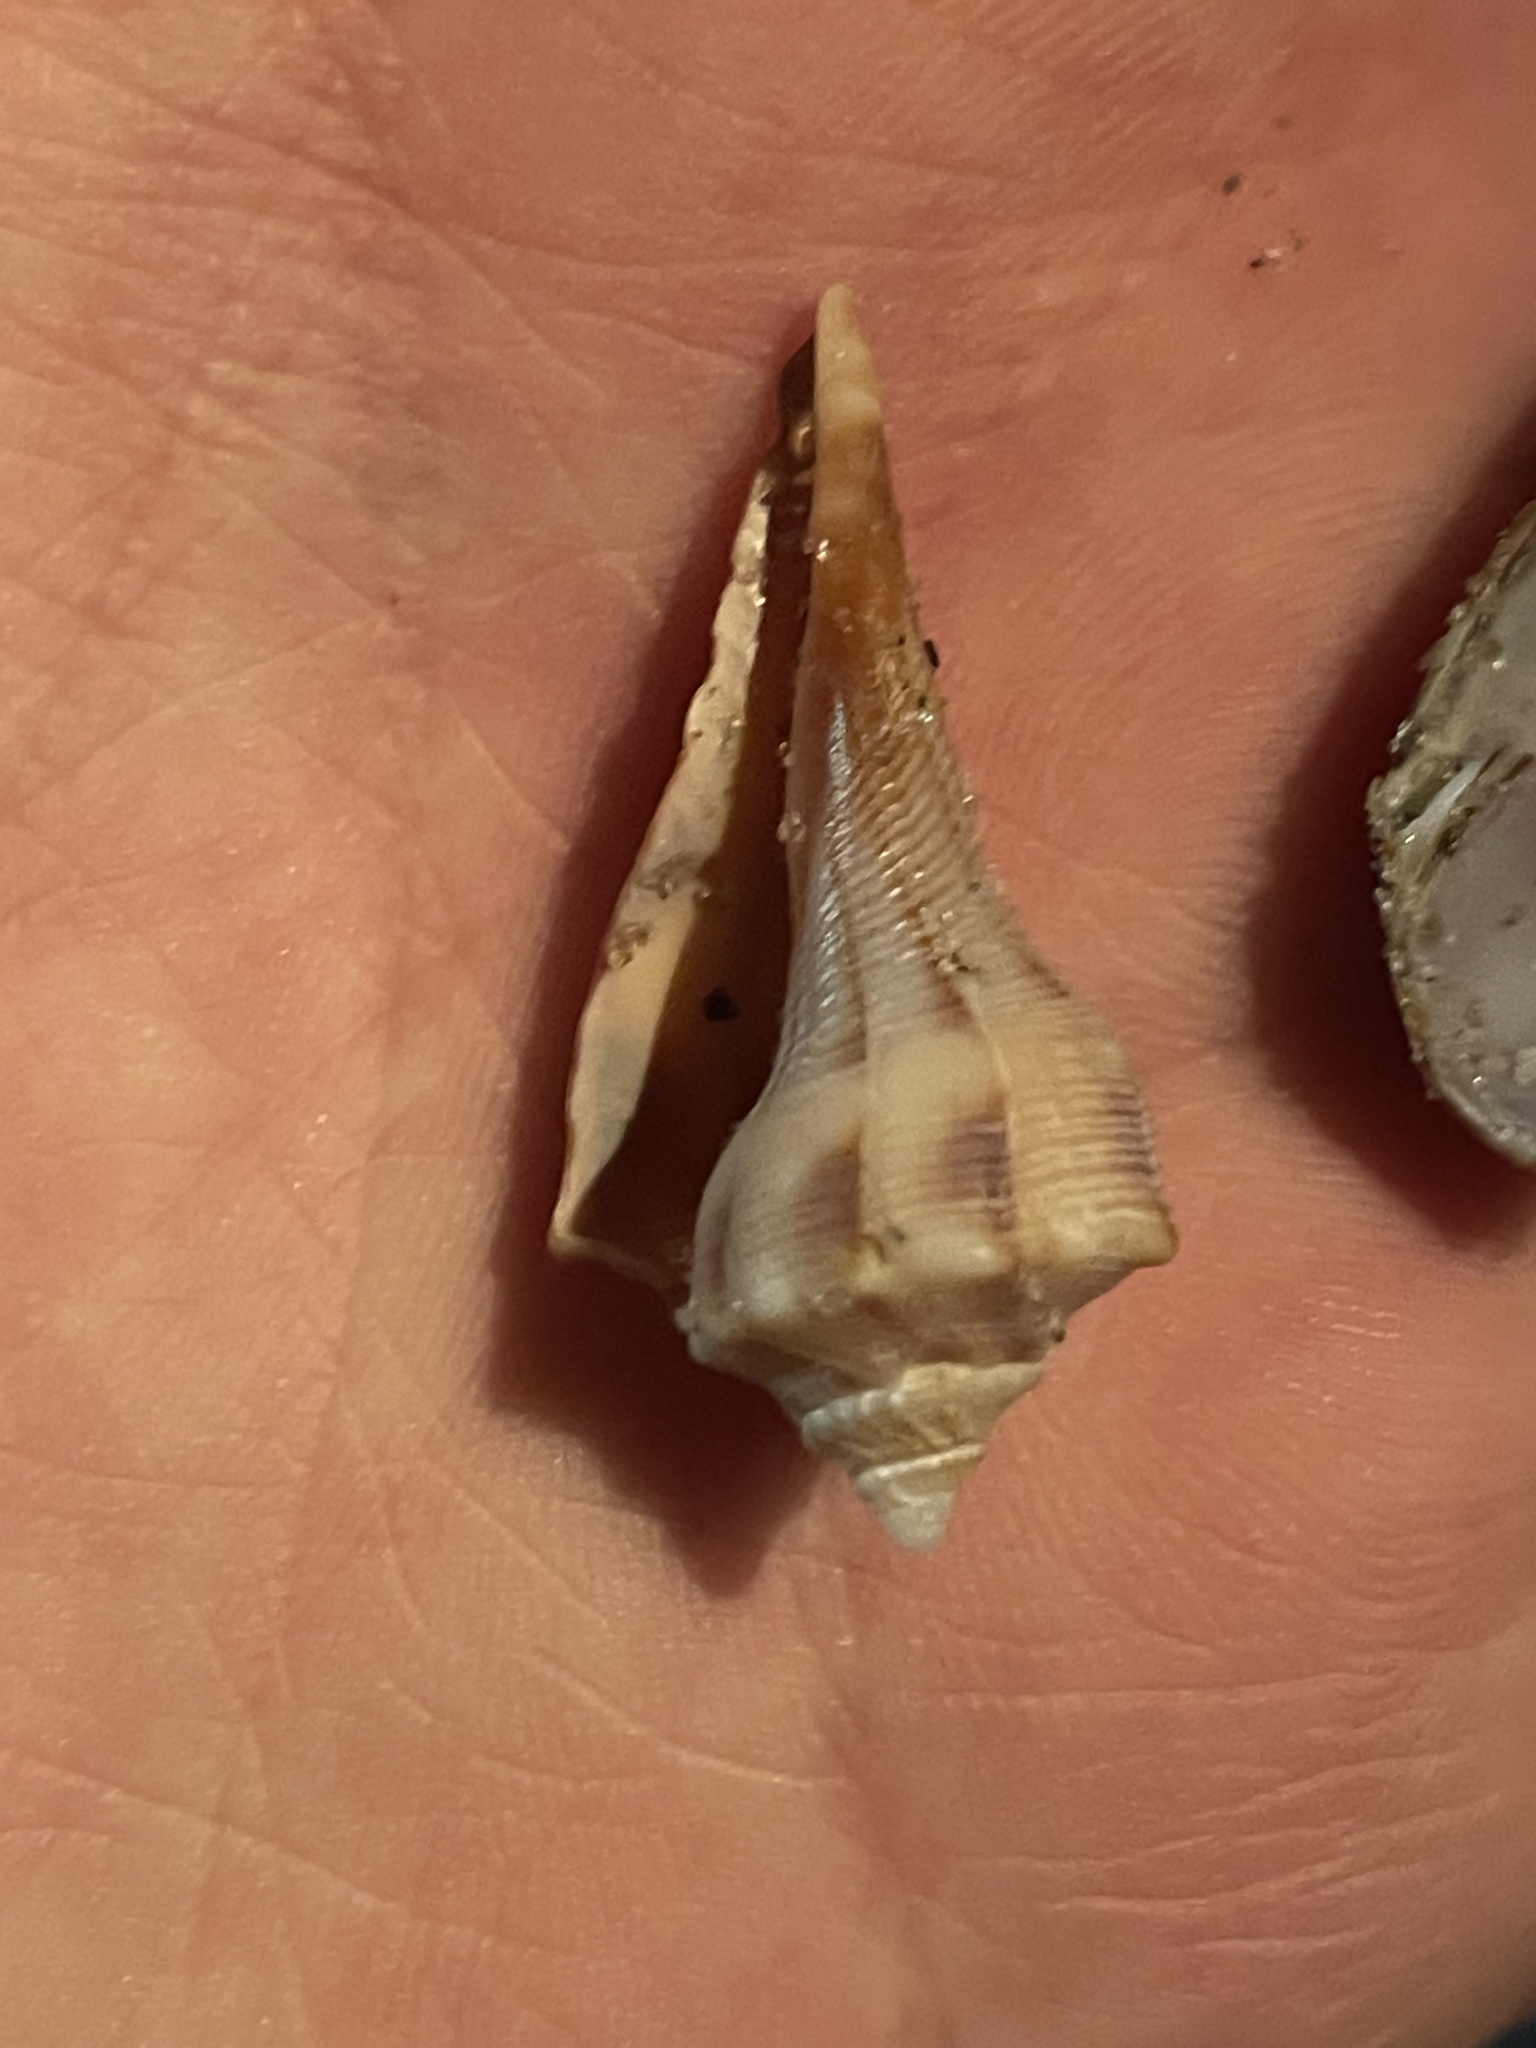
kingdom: Animalia
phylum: Mollusca
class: Gastropoda
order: Neogastropoda
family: Busyconidae
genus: Busycon
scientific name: Busycon carica
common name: Knobbed whelk
